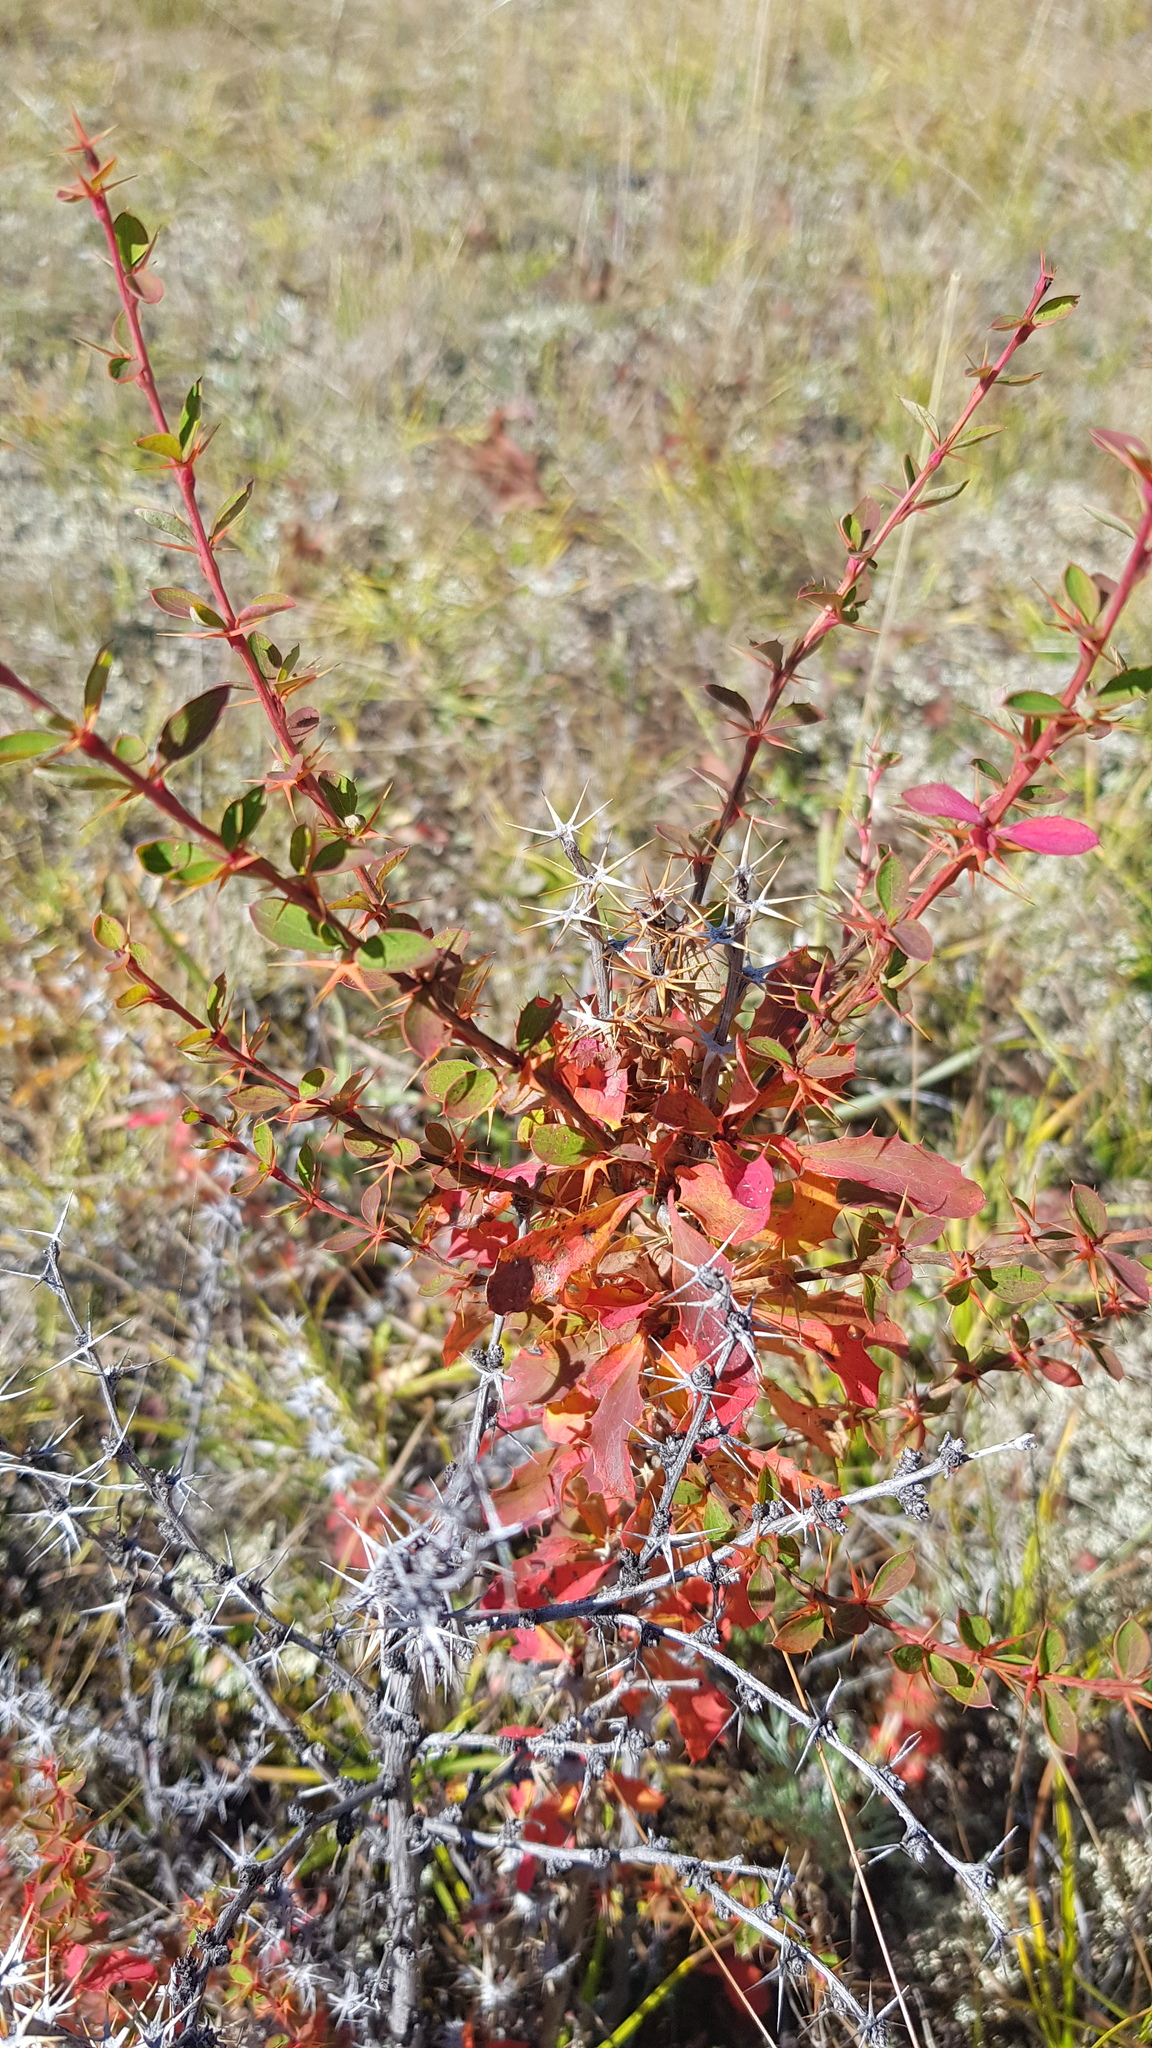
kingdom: Plantae
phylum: Tracheophyta
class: Magnoliopsida
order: Ranunculales
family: Berberidaceae
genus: Berberis
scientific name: Berberis sibirica
